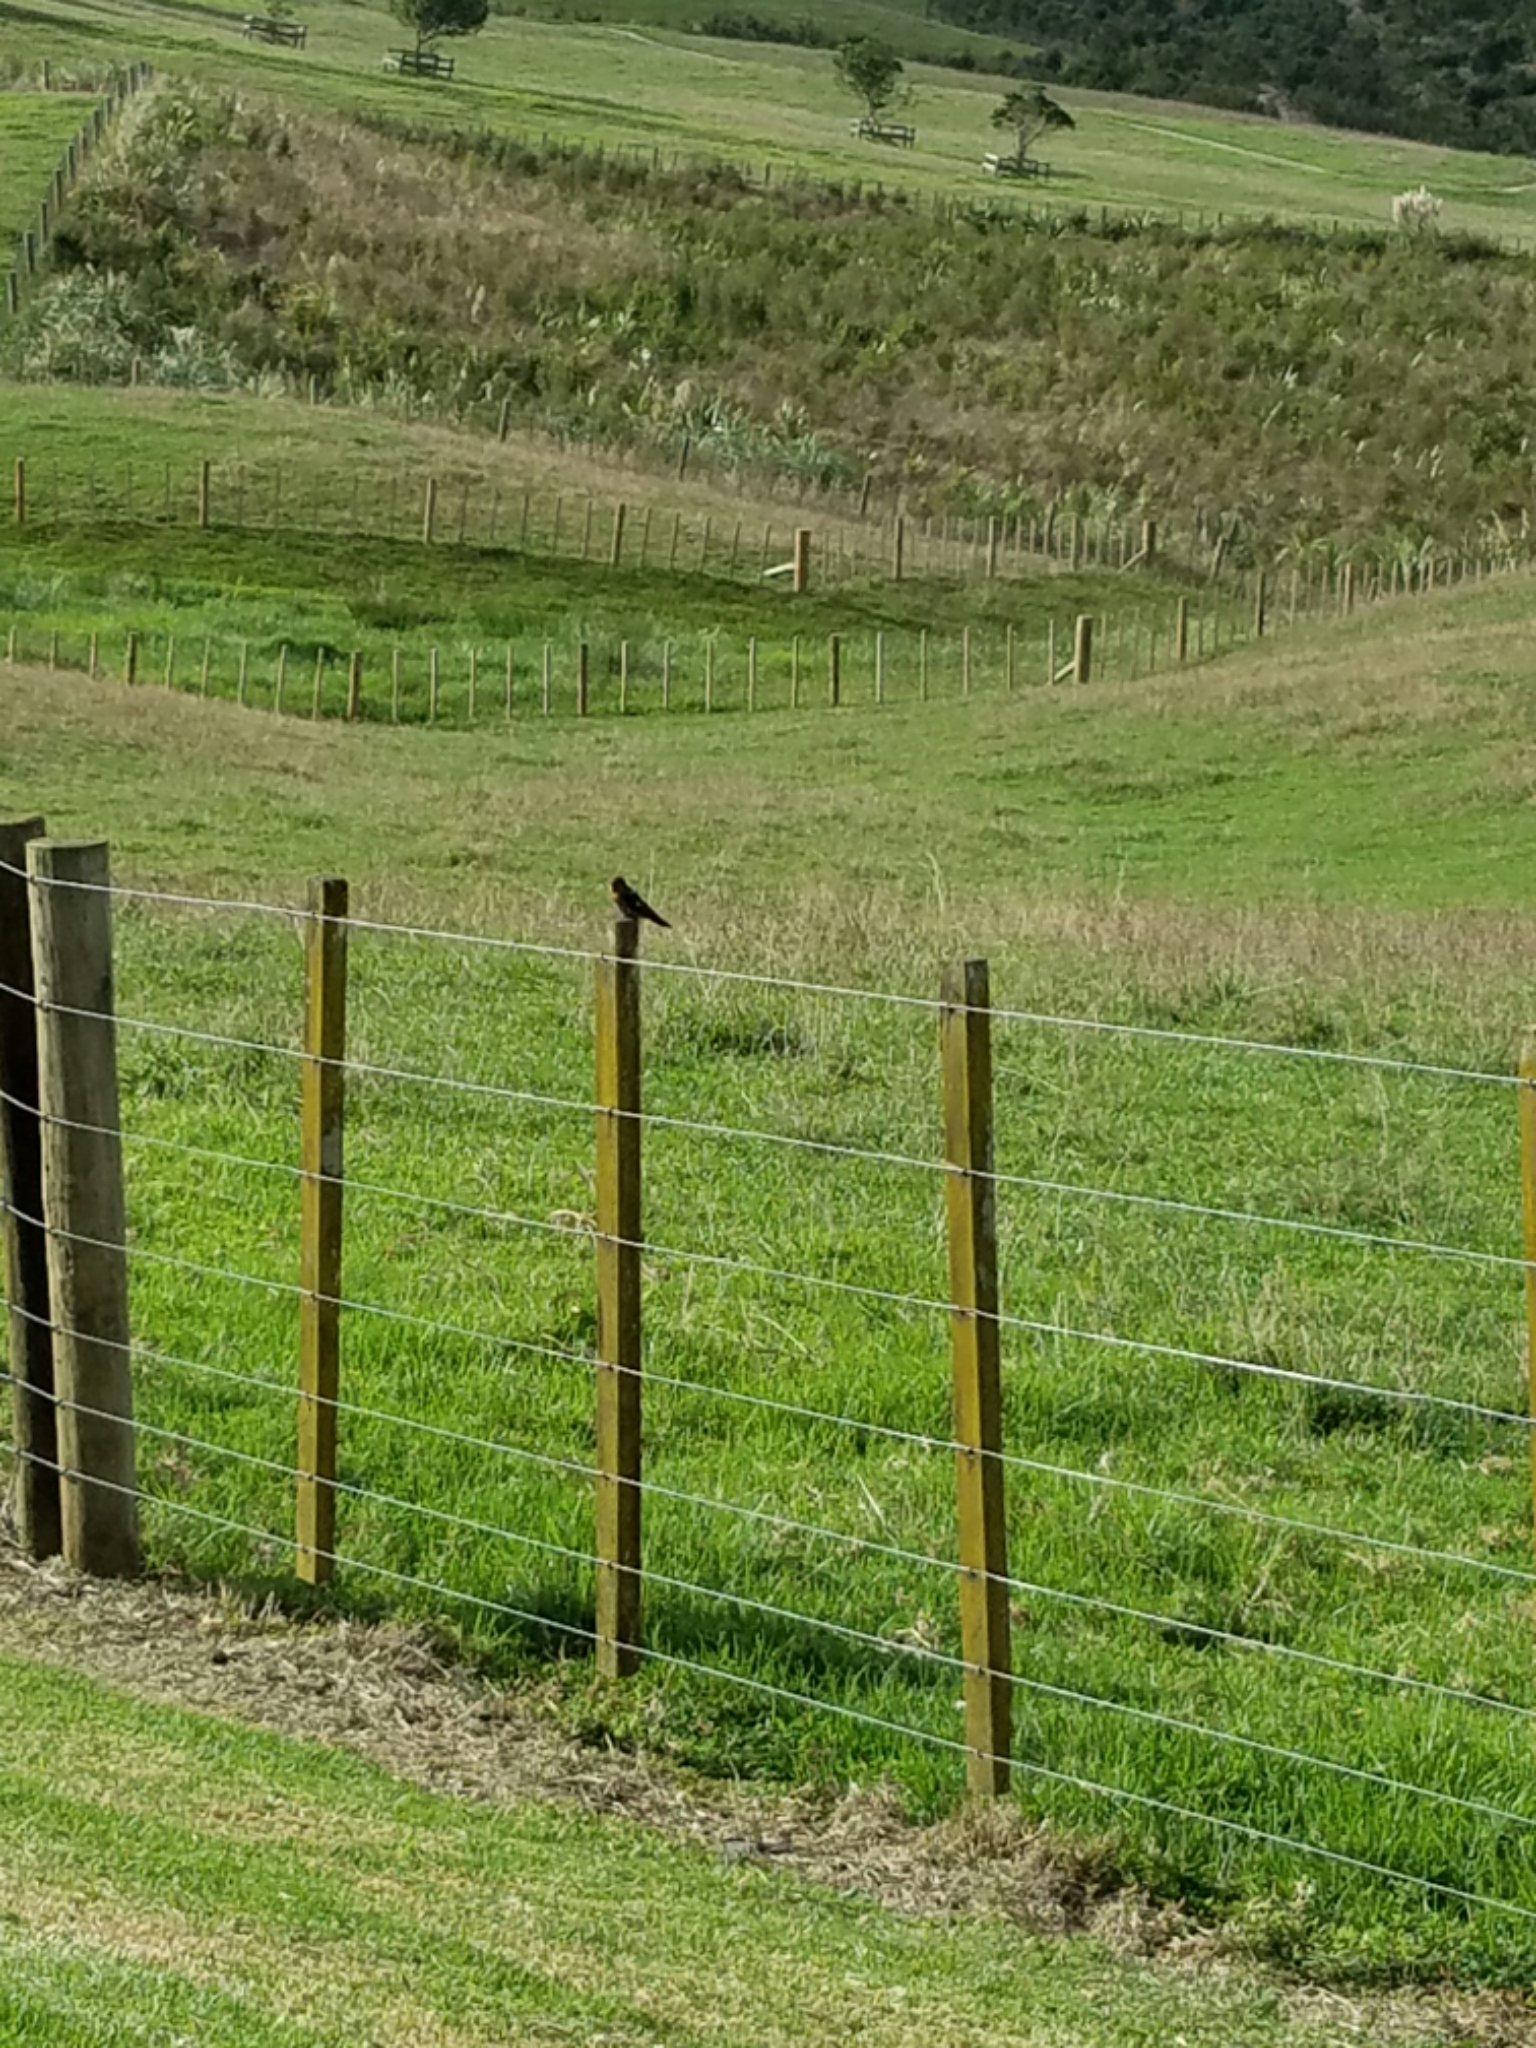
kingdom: Animalia
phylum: Chordata
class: Aves
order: Passeriformes
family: Hirundinidae
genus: Hirundo
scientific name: Hirundo neoxena
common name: Welcome swallow
